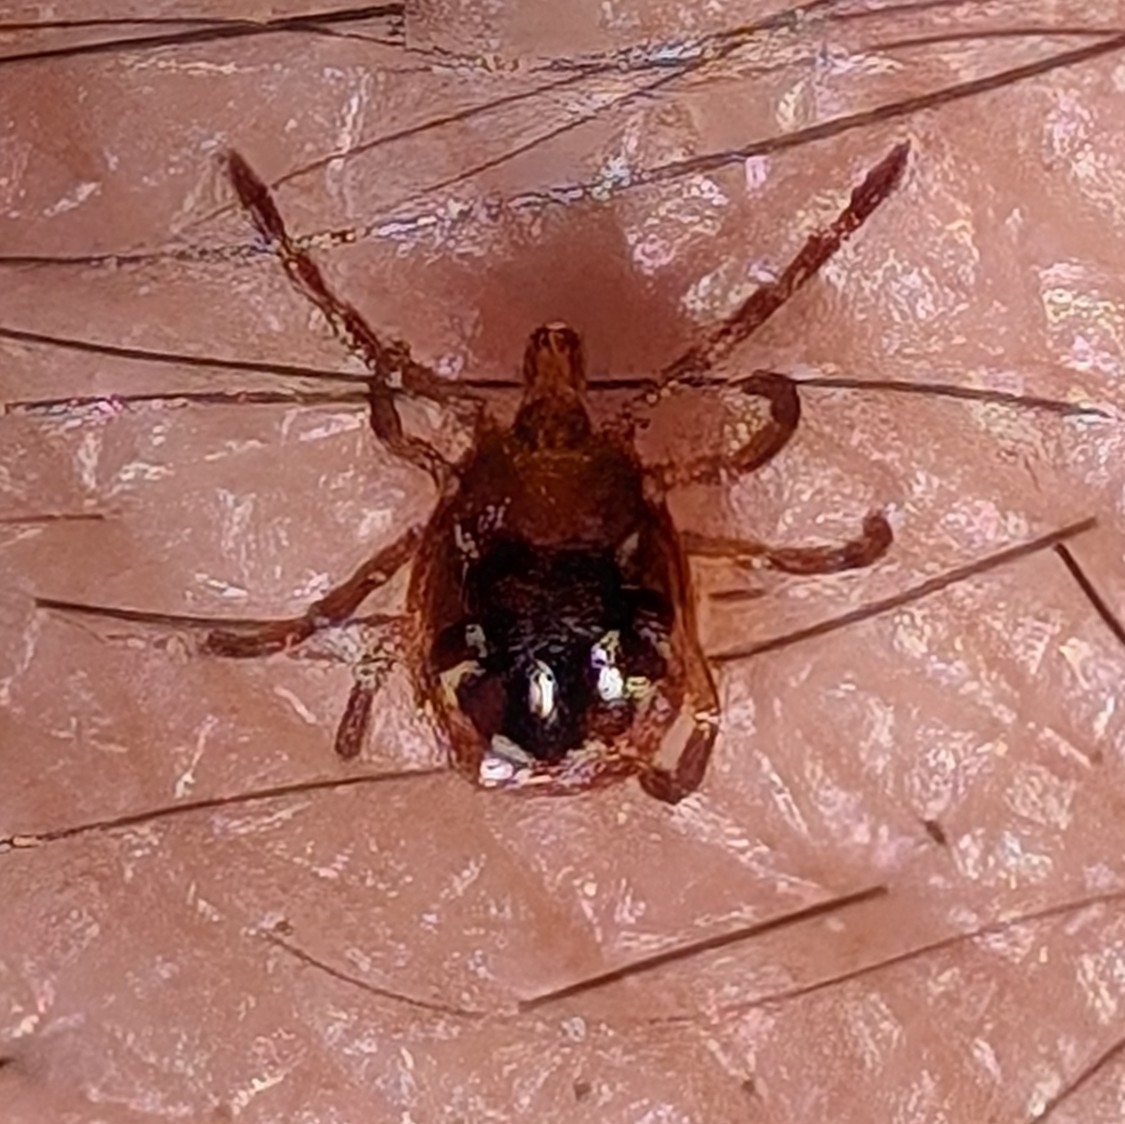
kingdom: Animalia
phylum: Arthropoda
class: Arachnida
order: Ixodida
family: Ixodidae
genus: Amblyomma
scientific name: Amblyomma americanum
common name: Lone star tick
